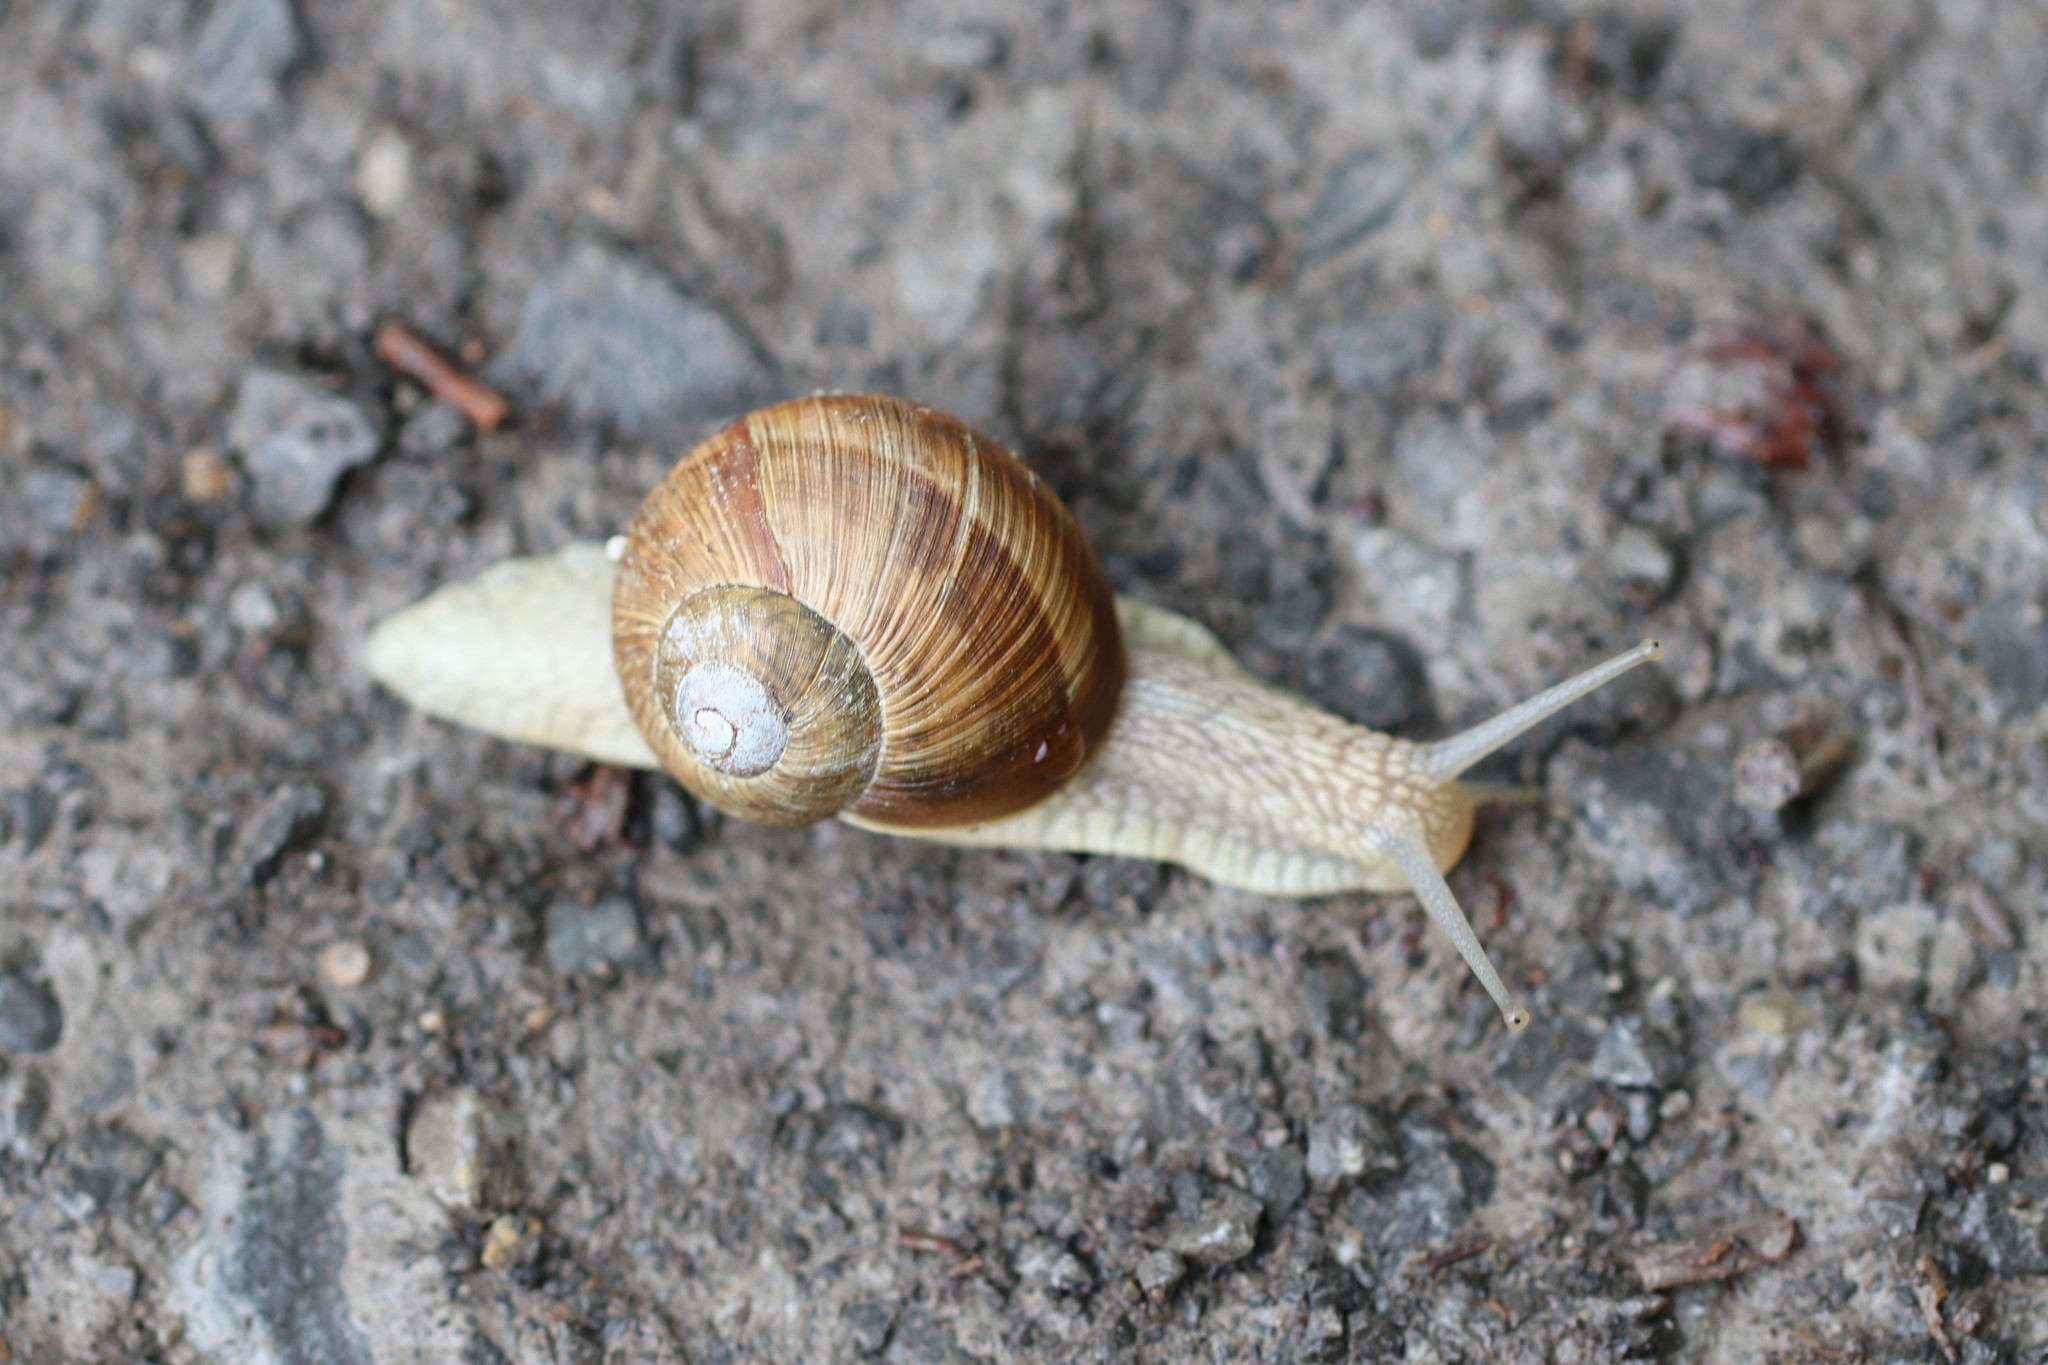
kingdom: Animalia
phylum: Mollusca
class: Gastropoda
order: Stylommatophora
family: Helicidae
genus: Helix
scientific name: Helix pomatia
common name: Roman snail
